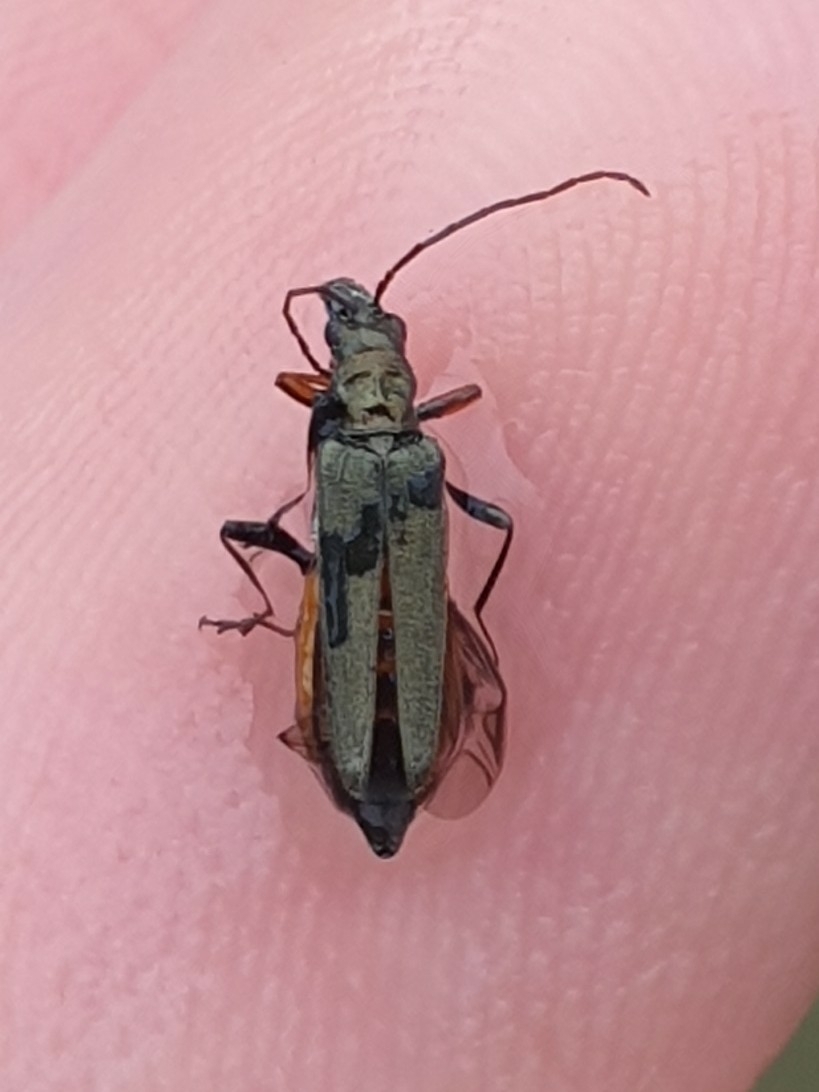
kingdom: Animalia
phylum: Arthropoda
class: Insecta
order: Coleoptera
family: Oedemeridae
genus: Oedemera
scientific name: Oedemera flavipes
